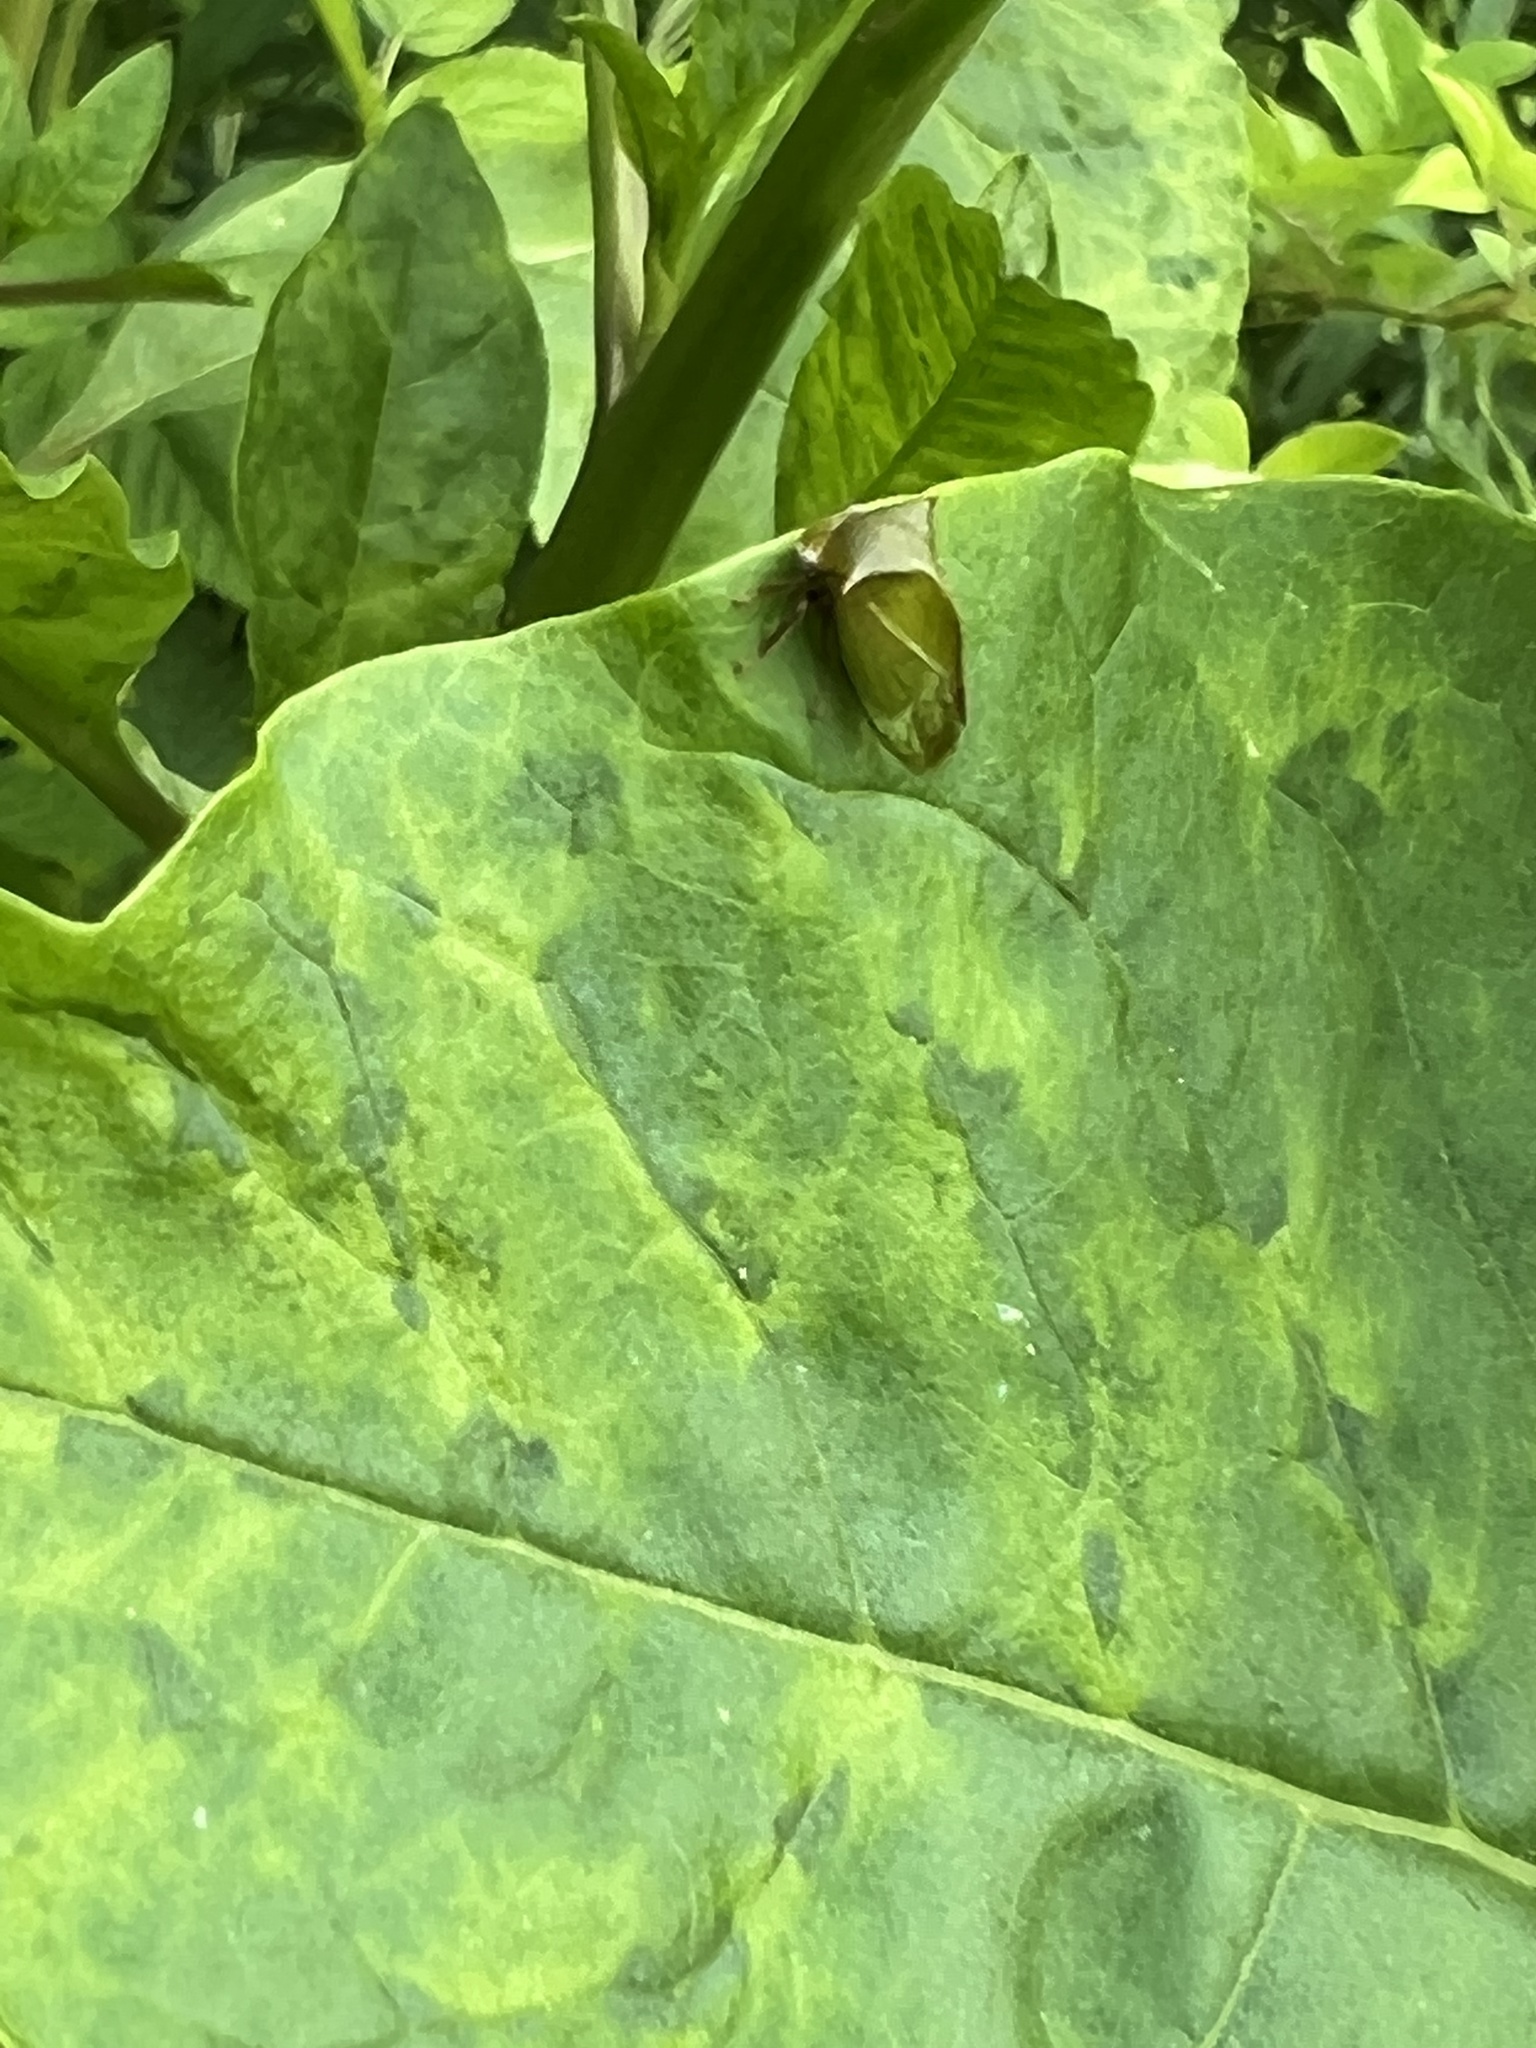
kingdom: Viruses
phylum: Pisuviricota
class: Stelpaviricetes
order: Patatavirales
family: Potyviridae
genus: Potyvirus
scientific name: Potyvirus Pokeweed mosaic virus
